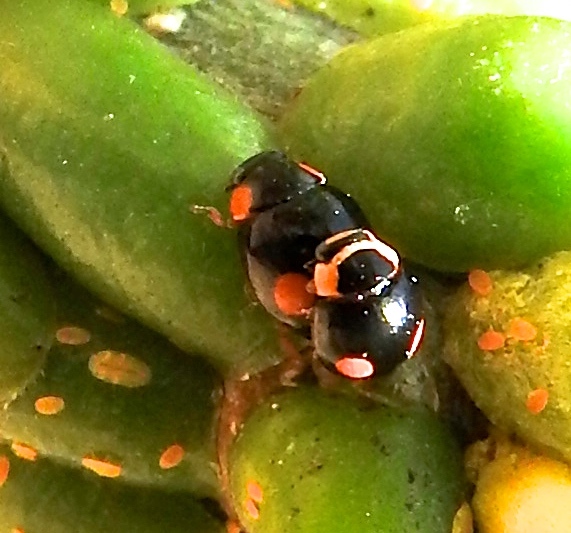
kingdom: Animalia
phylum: Arthropoda
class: Insecta
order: Coleoptera
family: Coccinellidae
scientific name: Coccinellidae
